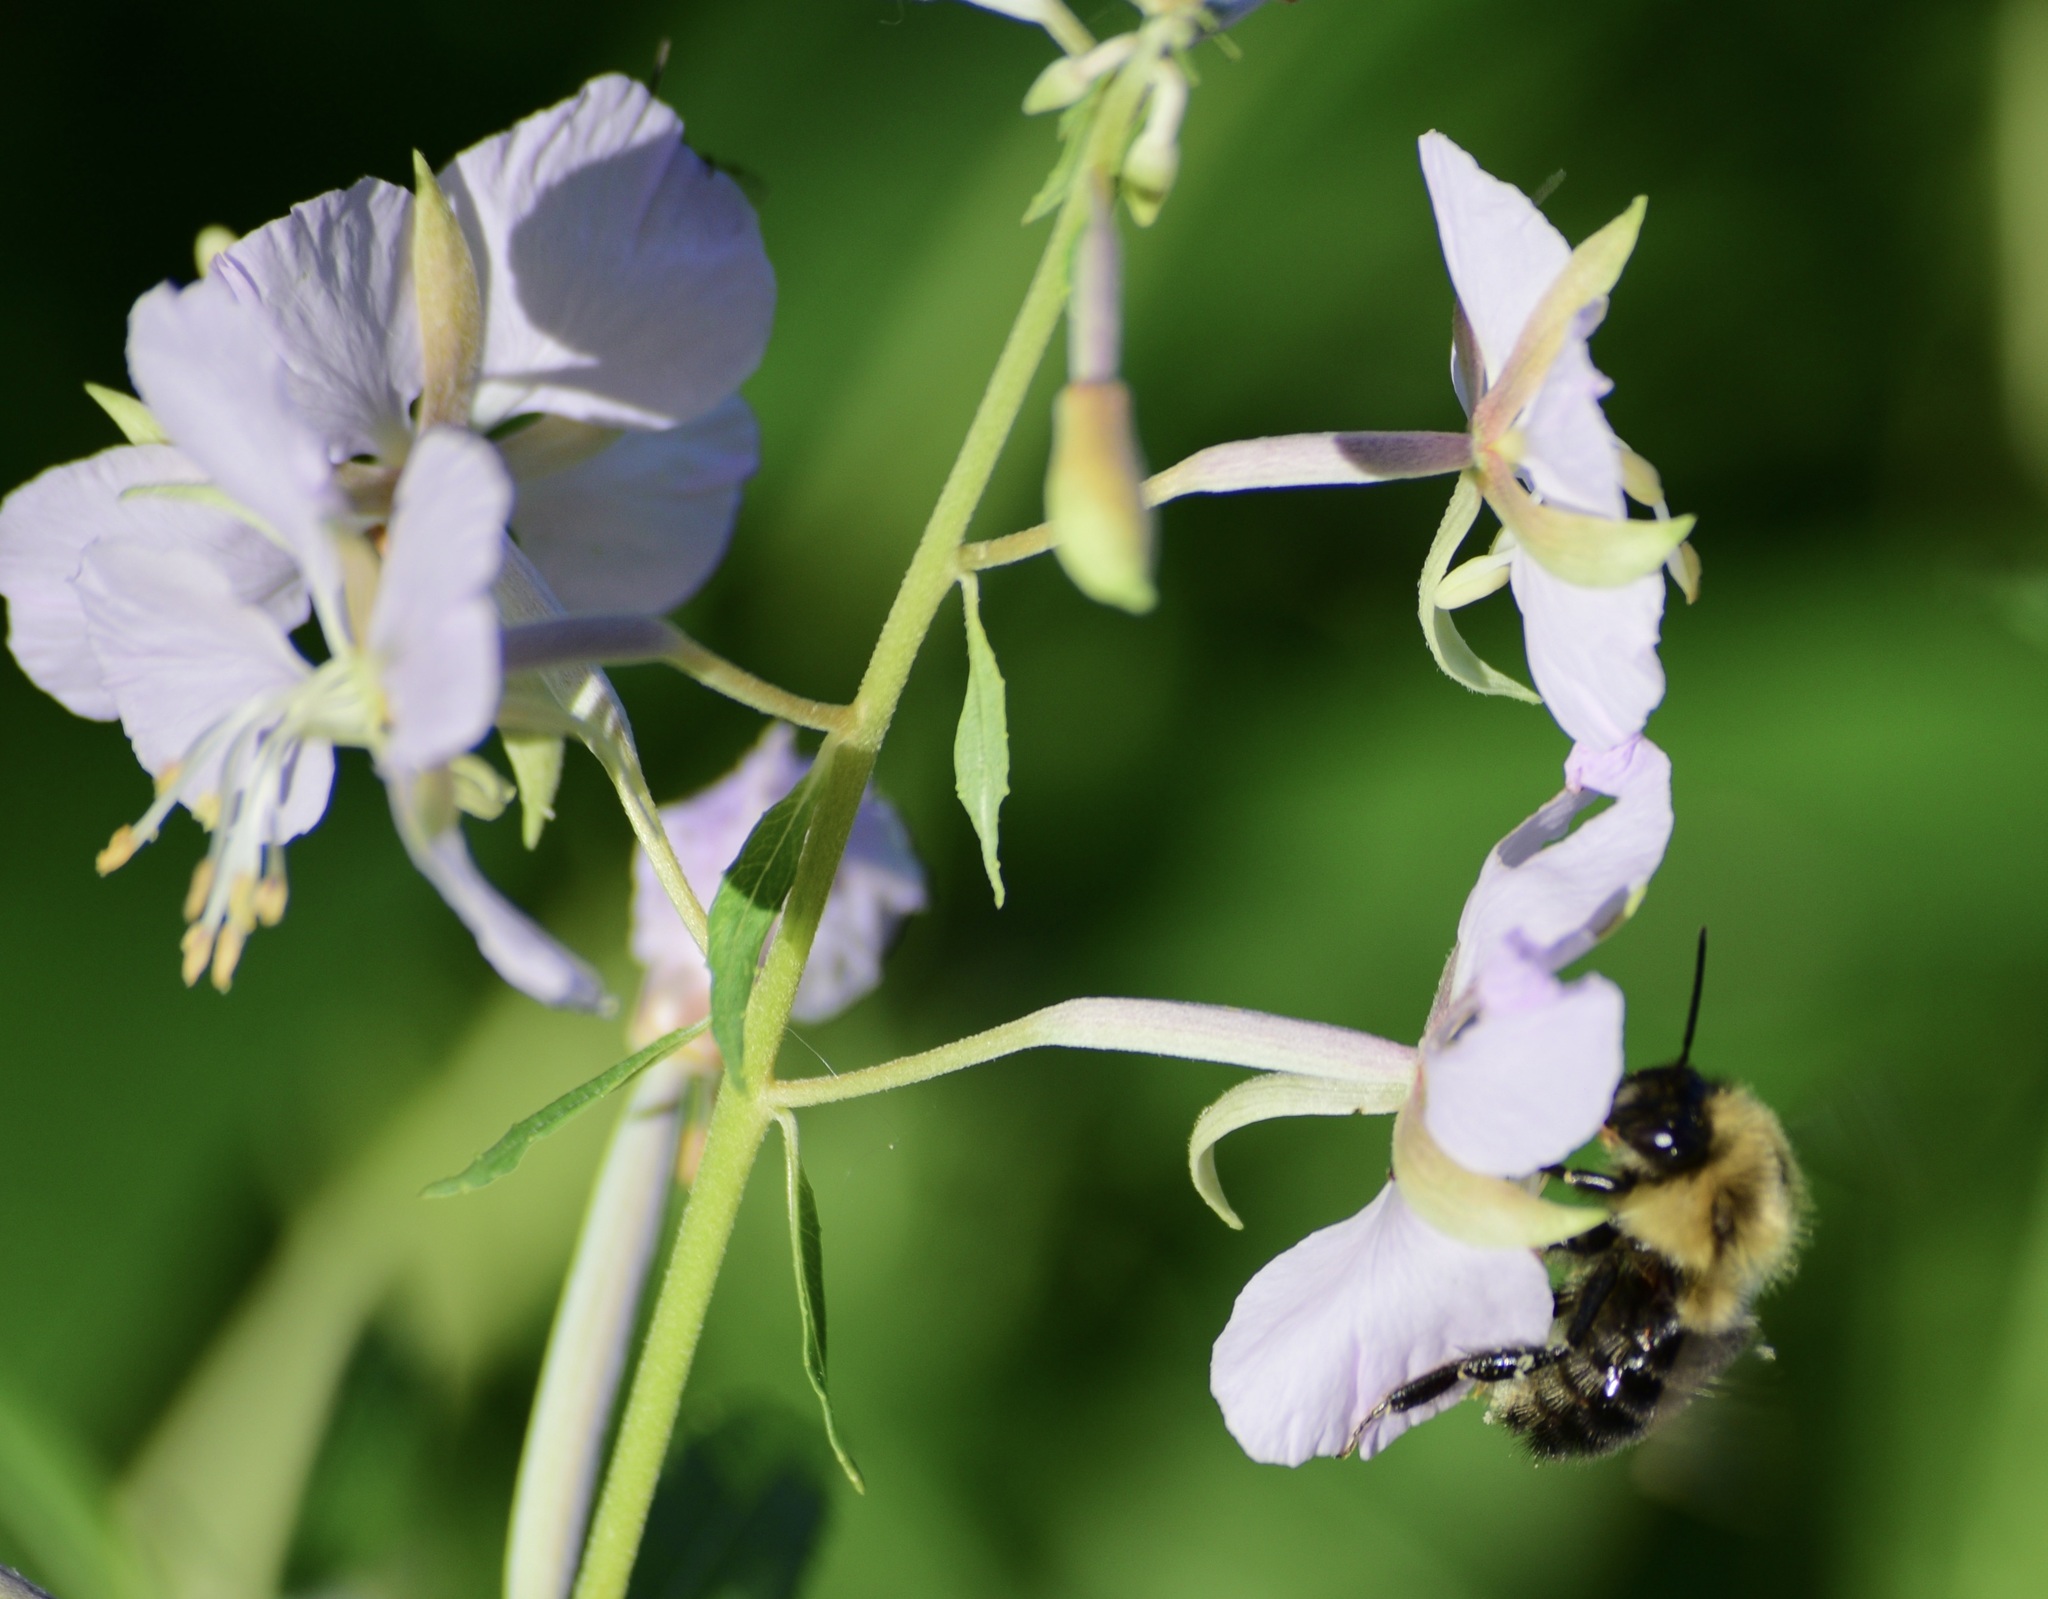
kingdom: Animalia
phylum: Arthropoda
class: Insecta
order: Hymenoptera
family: Apidae
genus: Bombus
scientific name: Bombus impatiens
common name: Common eastern bumble bee
